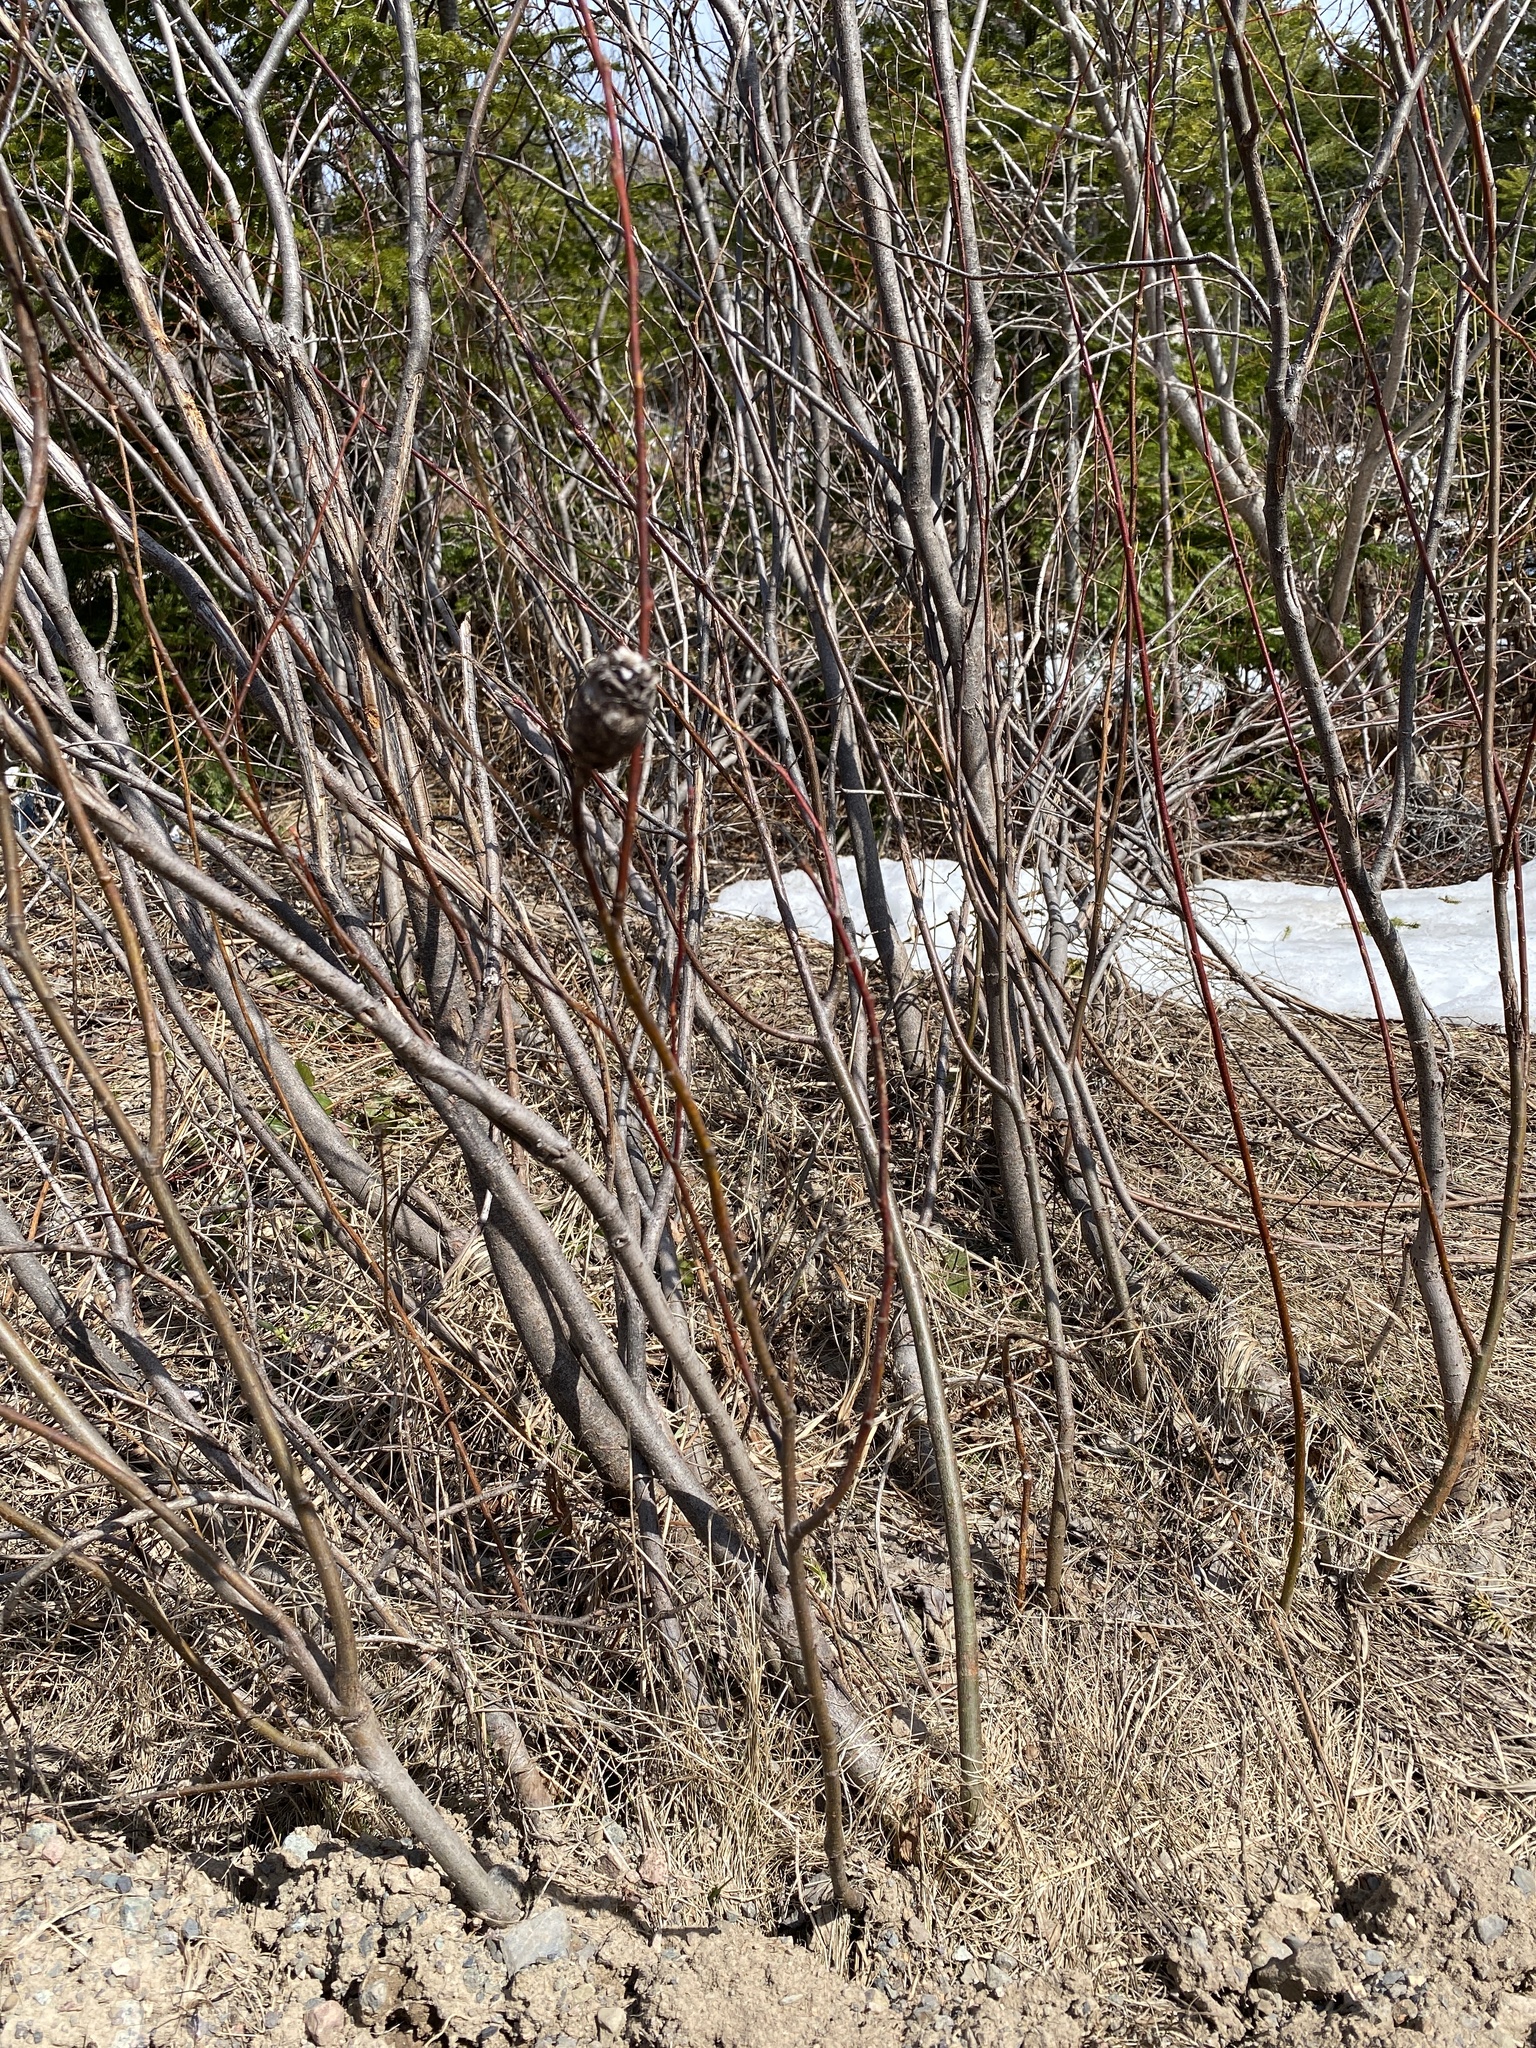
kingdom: Animalia
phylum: Arthropoda
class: Insecta
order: Diptera
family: Cecidomyiidae
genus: Rabdophaga
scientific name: Rabdophaga strobiloides
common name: Willow pinecone gall midge
